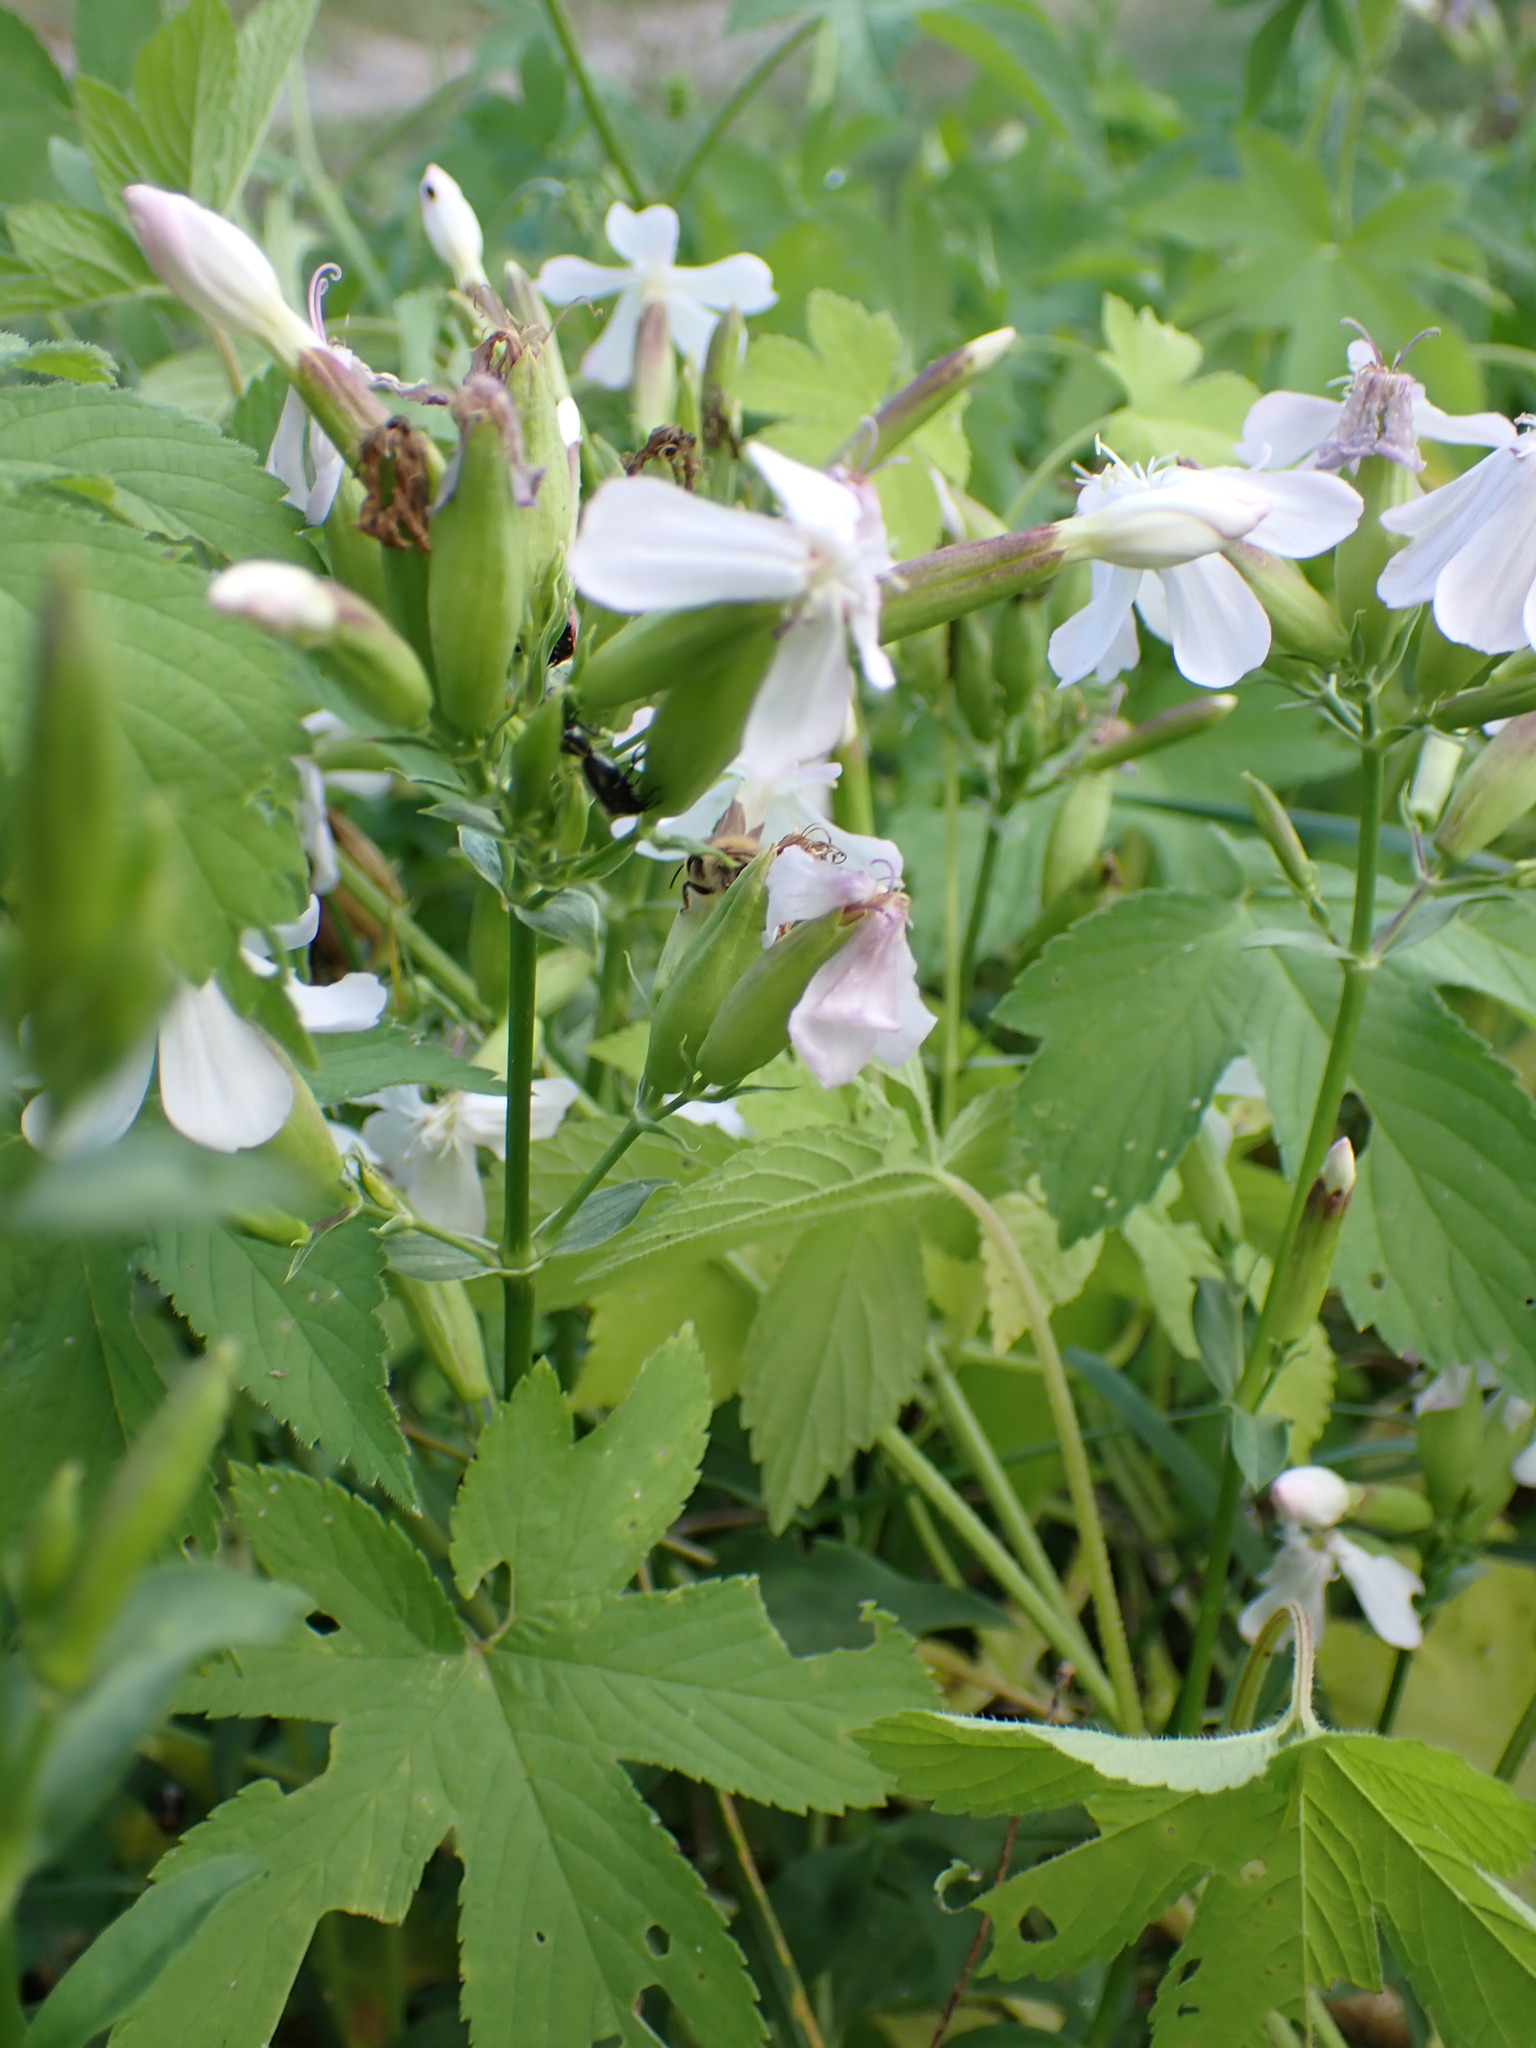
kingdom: Plantae
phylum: Tracheophyta
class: Magnoliopsida
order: Caryophyllales
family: Caryophyllaceae
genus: Saponaria
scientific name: Saponaria officinalis
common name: Soapwort
